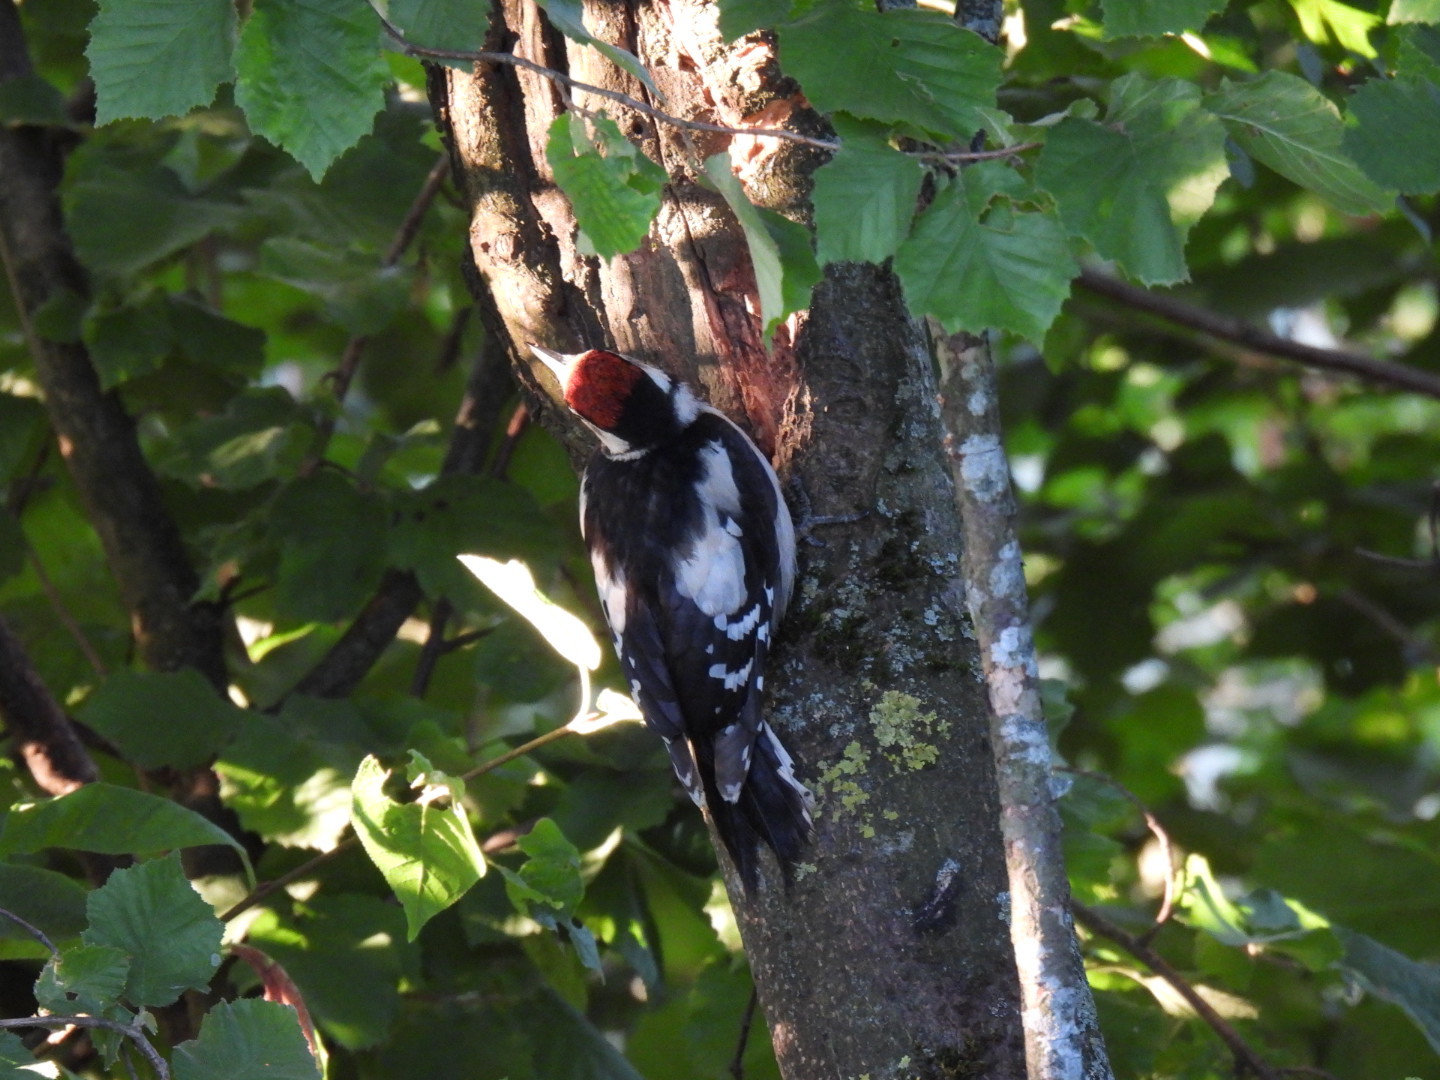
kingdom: Animalia
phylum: Chordata
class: Aves
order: Piciformes
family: Picidae
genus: Dendrocopos
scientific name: Dendrocopos major
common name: Great spotted woodpecker
